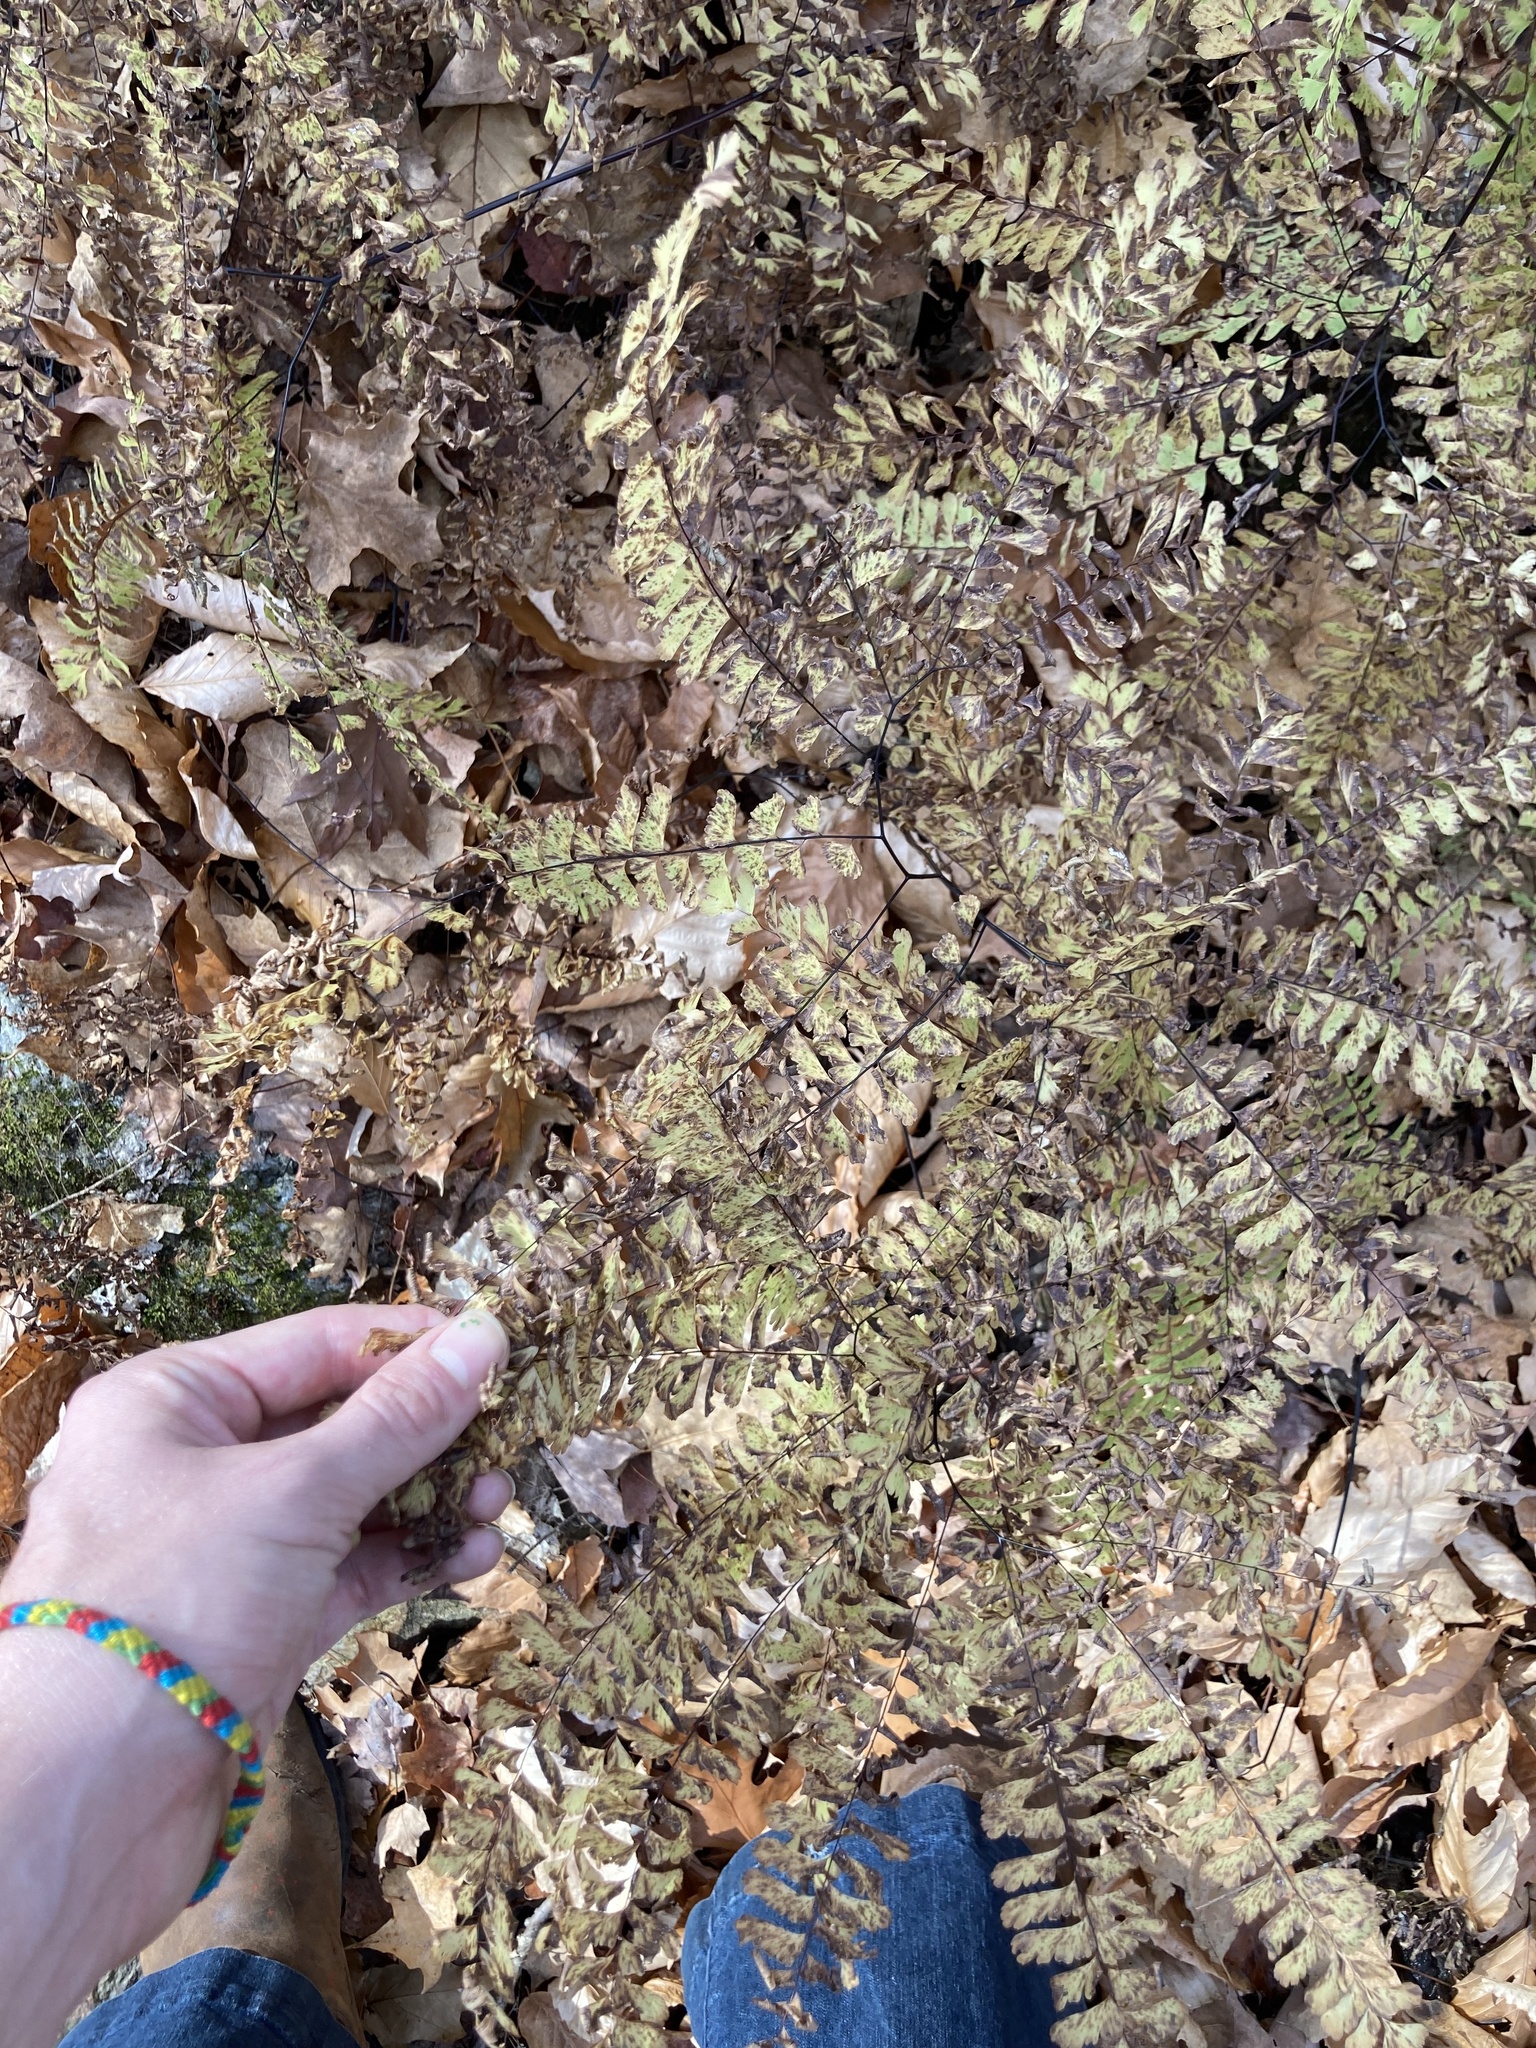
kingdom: Plantae
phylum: Tracheophyta
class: Polypodiopsida
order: Polypodiales
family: Pteridaceae
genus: Adiantum
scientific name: Adiantum pedatum
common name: Five-finger fern
